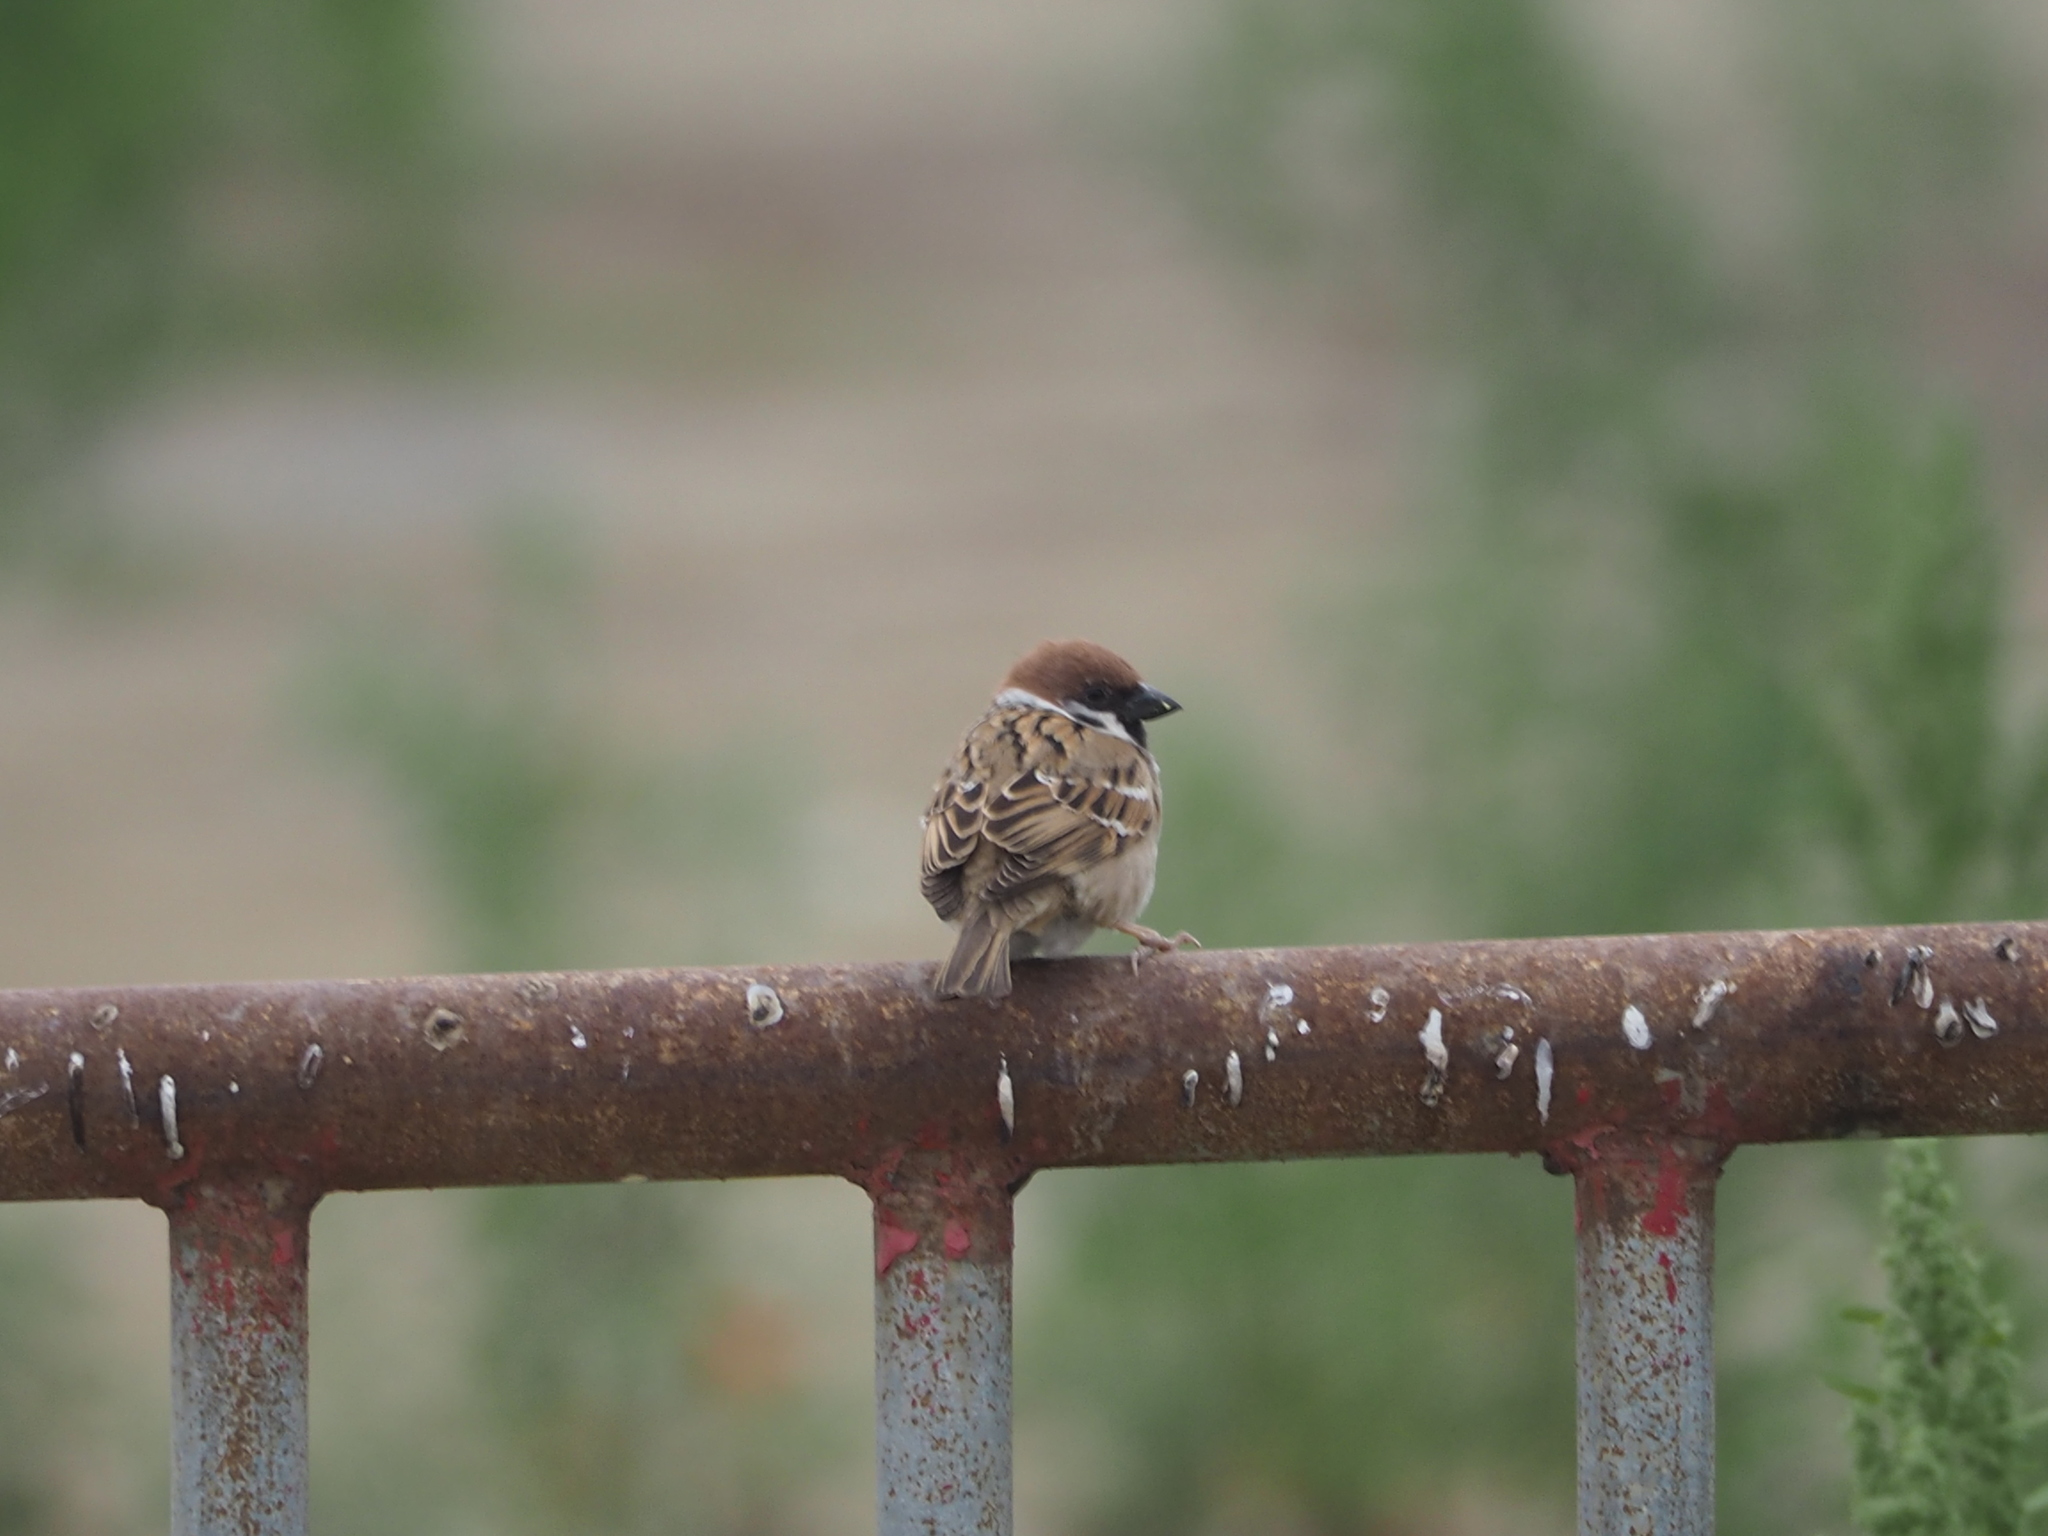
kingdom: Animalia
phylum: Chordata
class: Aves
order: Passeriformes
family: Passeridae
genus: Passer
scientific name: Passer montanus
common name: Eurasian tree sparrow
